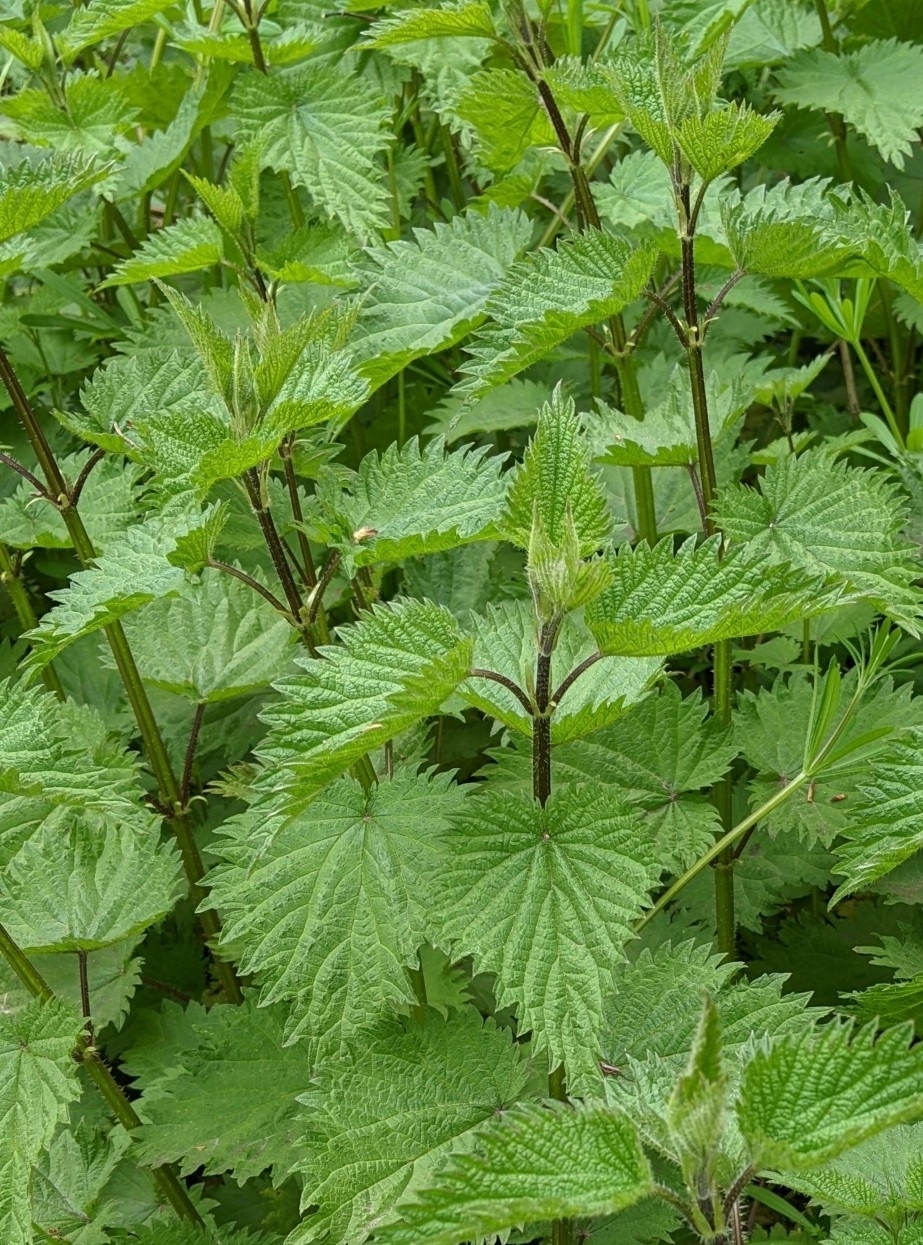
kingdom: Plantae
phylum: Tracheophyta
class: Magnoliopsida
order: Rosales
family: Urticaceae
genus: Urtica
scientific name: Urtica dioica
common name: Common nettle
